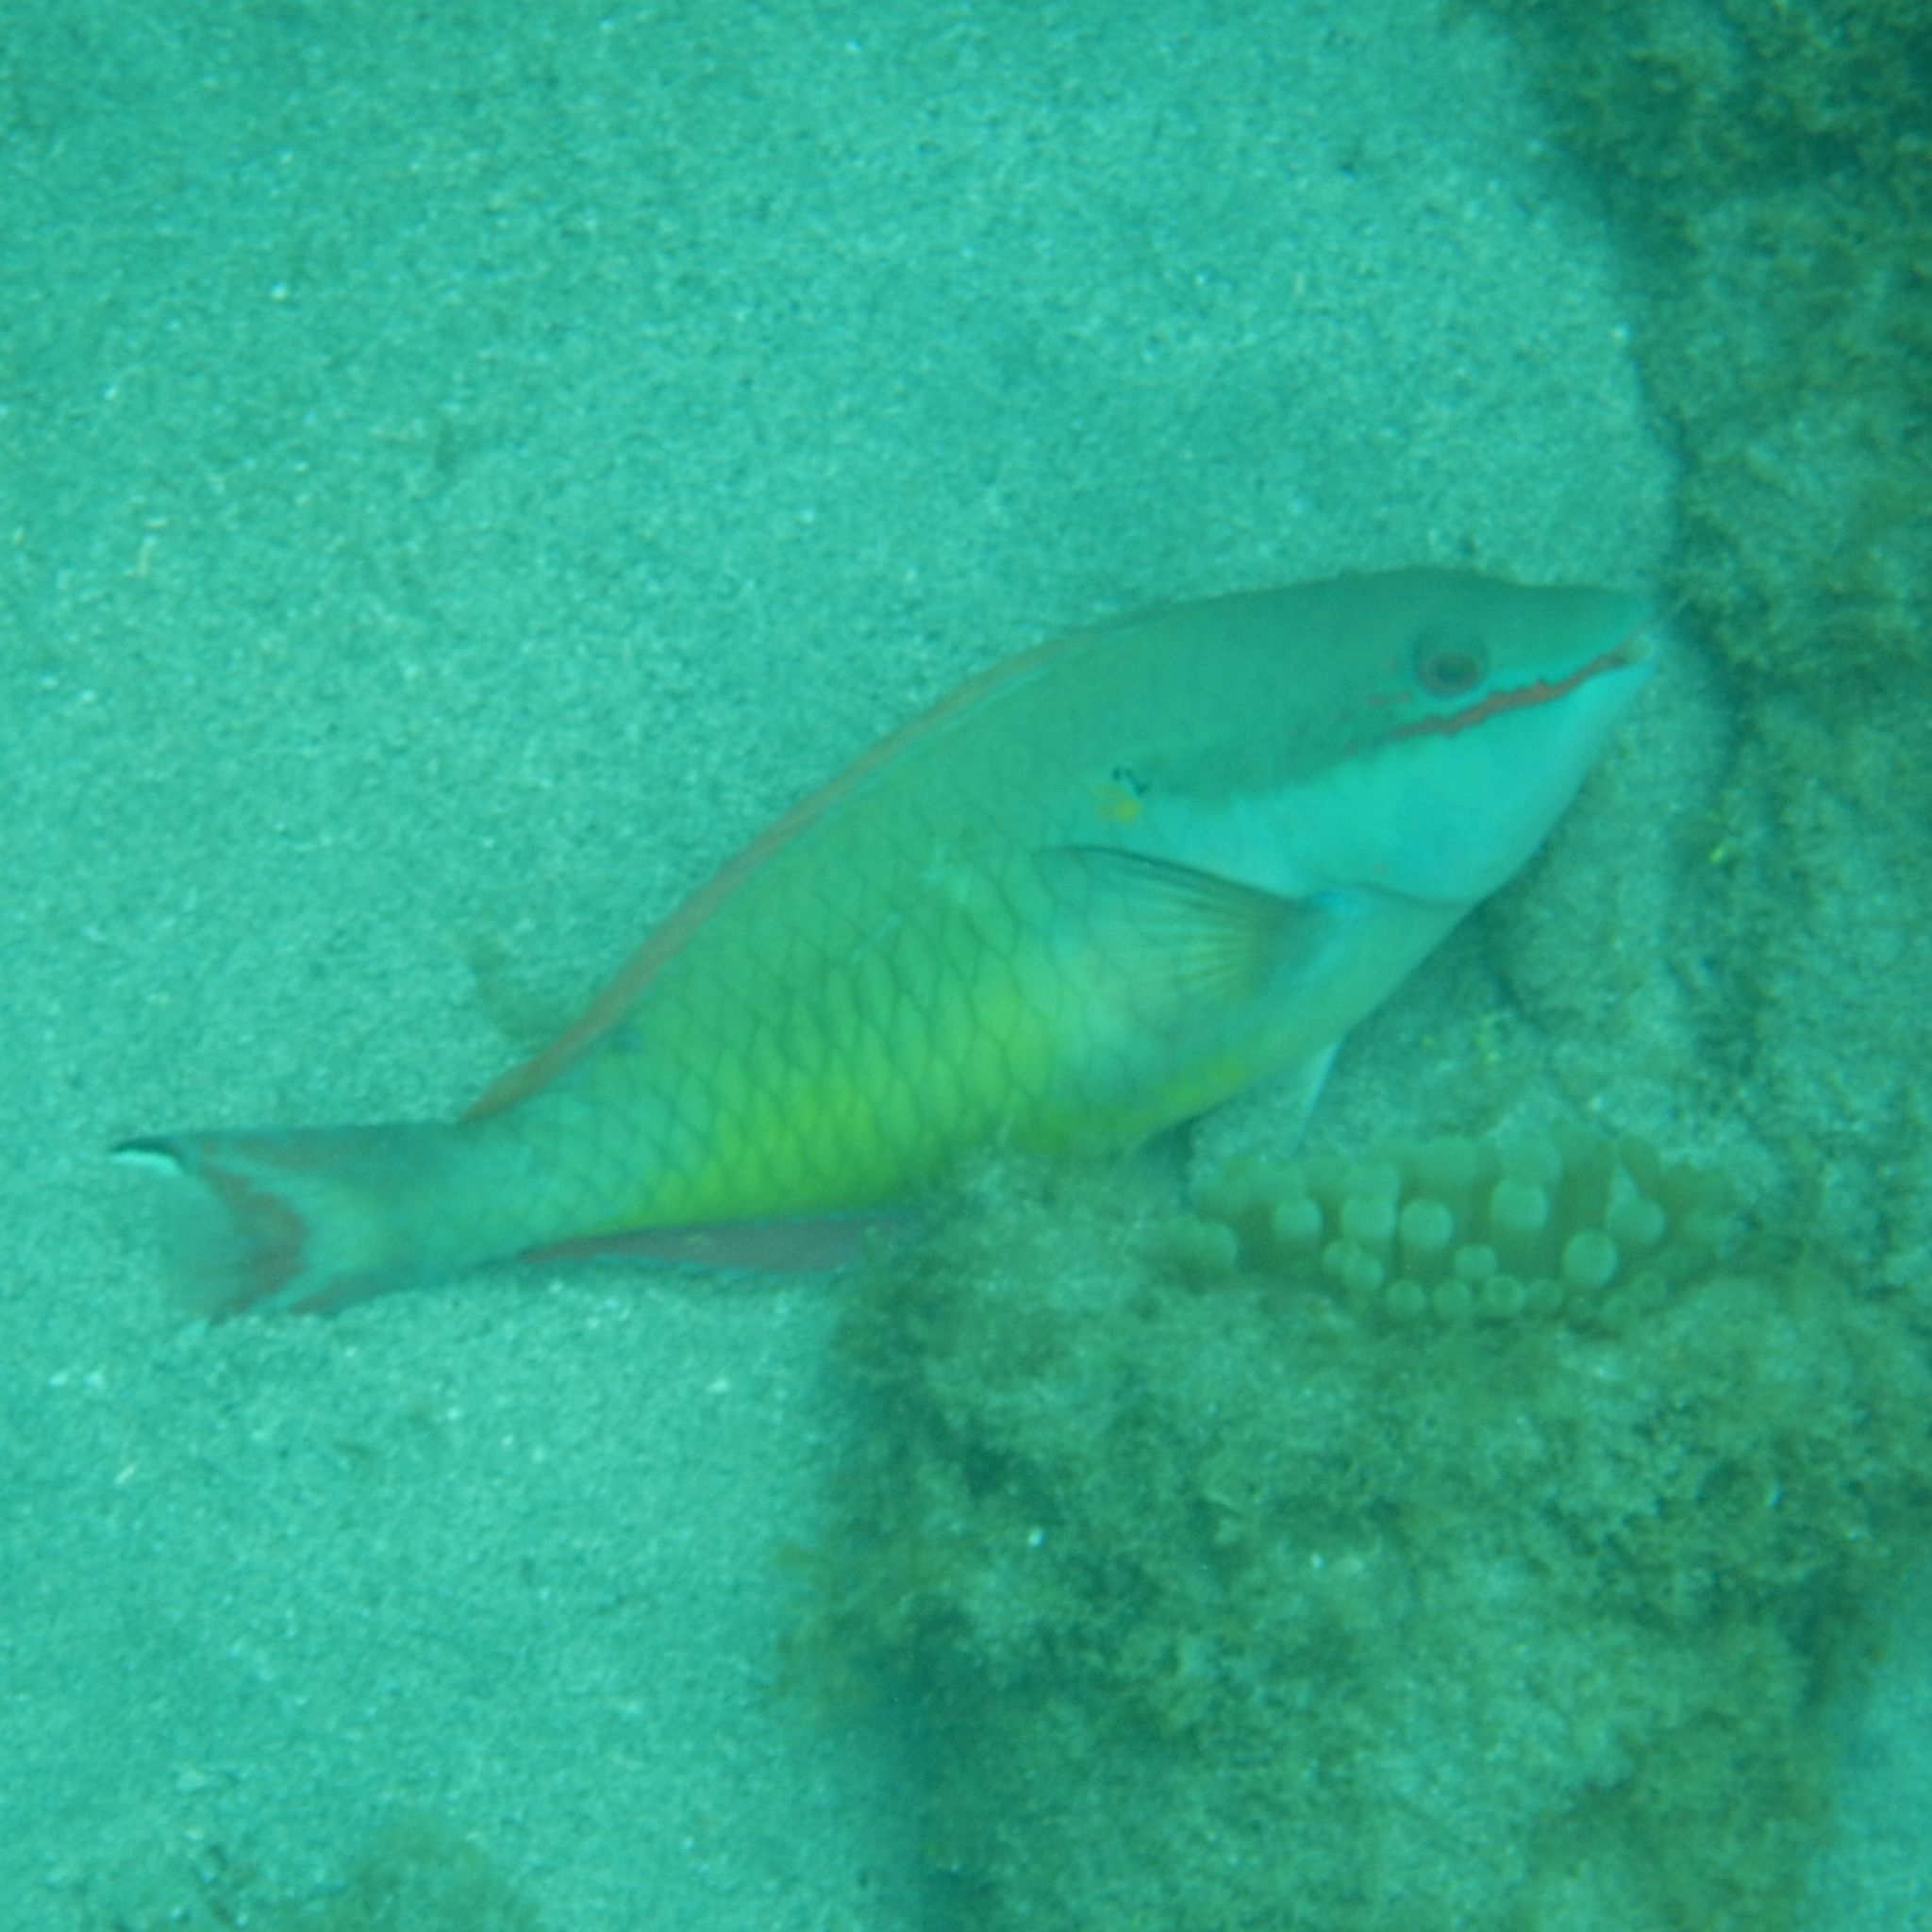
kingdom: Animalia
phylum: Chordata
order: Perciformes
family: Scaridae
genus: Sparisoma
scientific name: Sparisoma aurofrenatum
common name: Redband parrotfish
